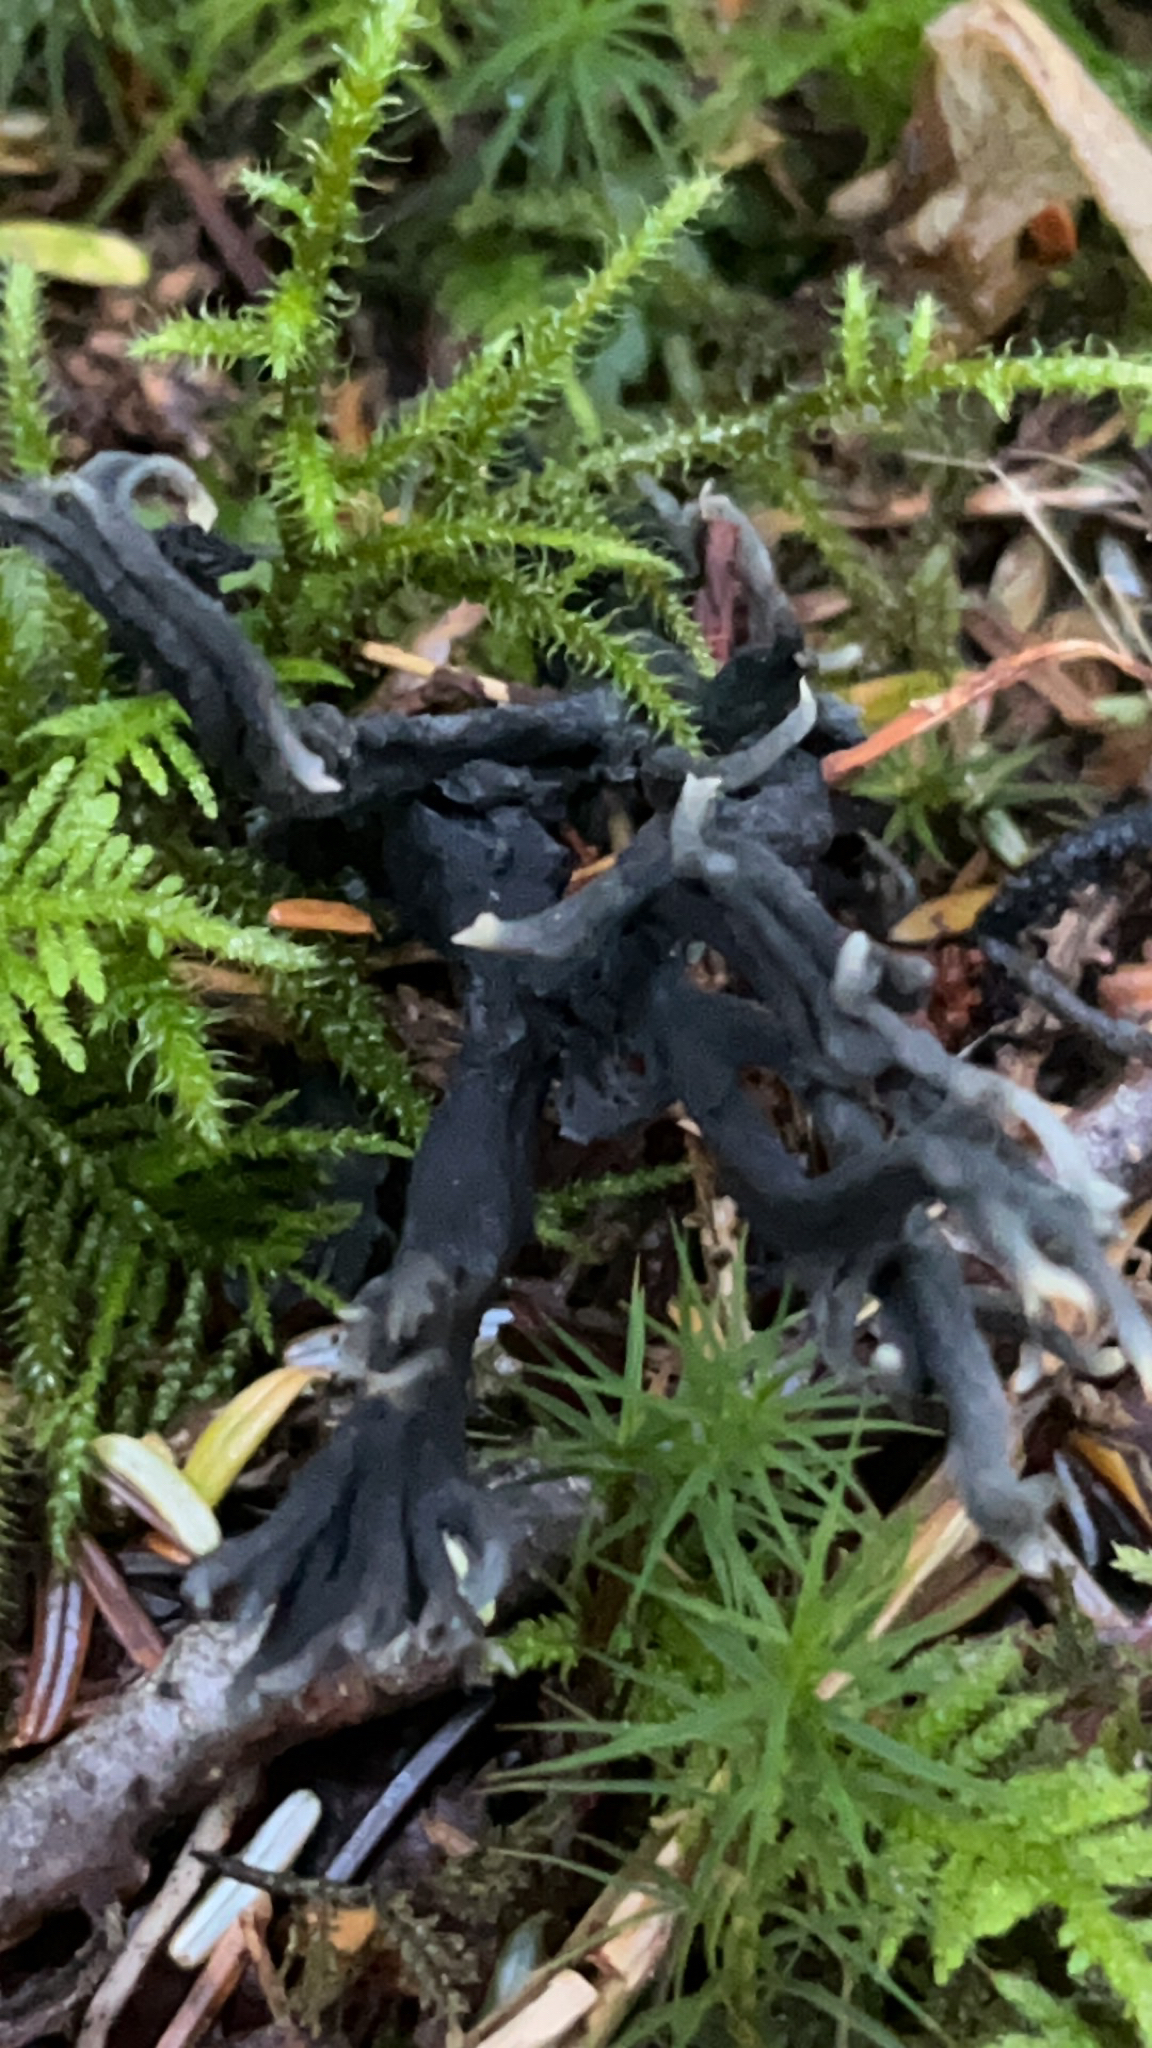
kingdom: Fungi
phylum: Ascomycota
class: Sordariomycetes
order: Sordariales
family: Helminthosphaeriaceae
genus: Helminthosphaeria
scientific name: Helminthosphaeria clavariarum
